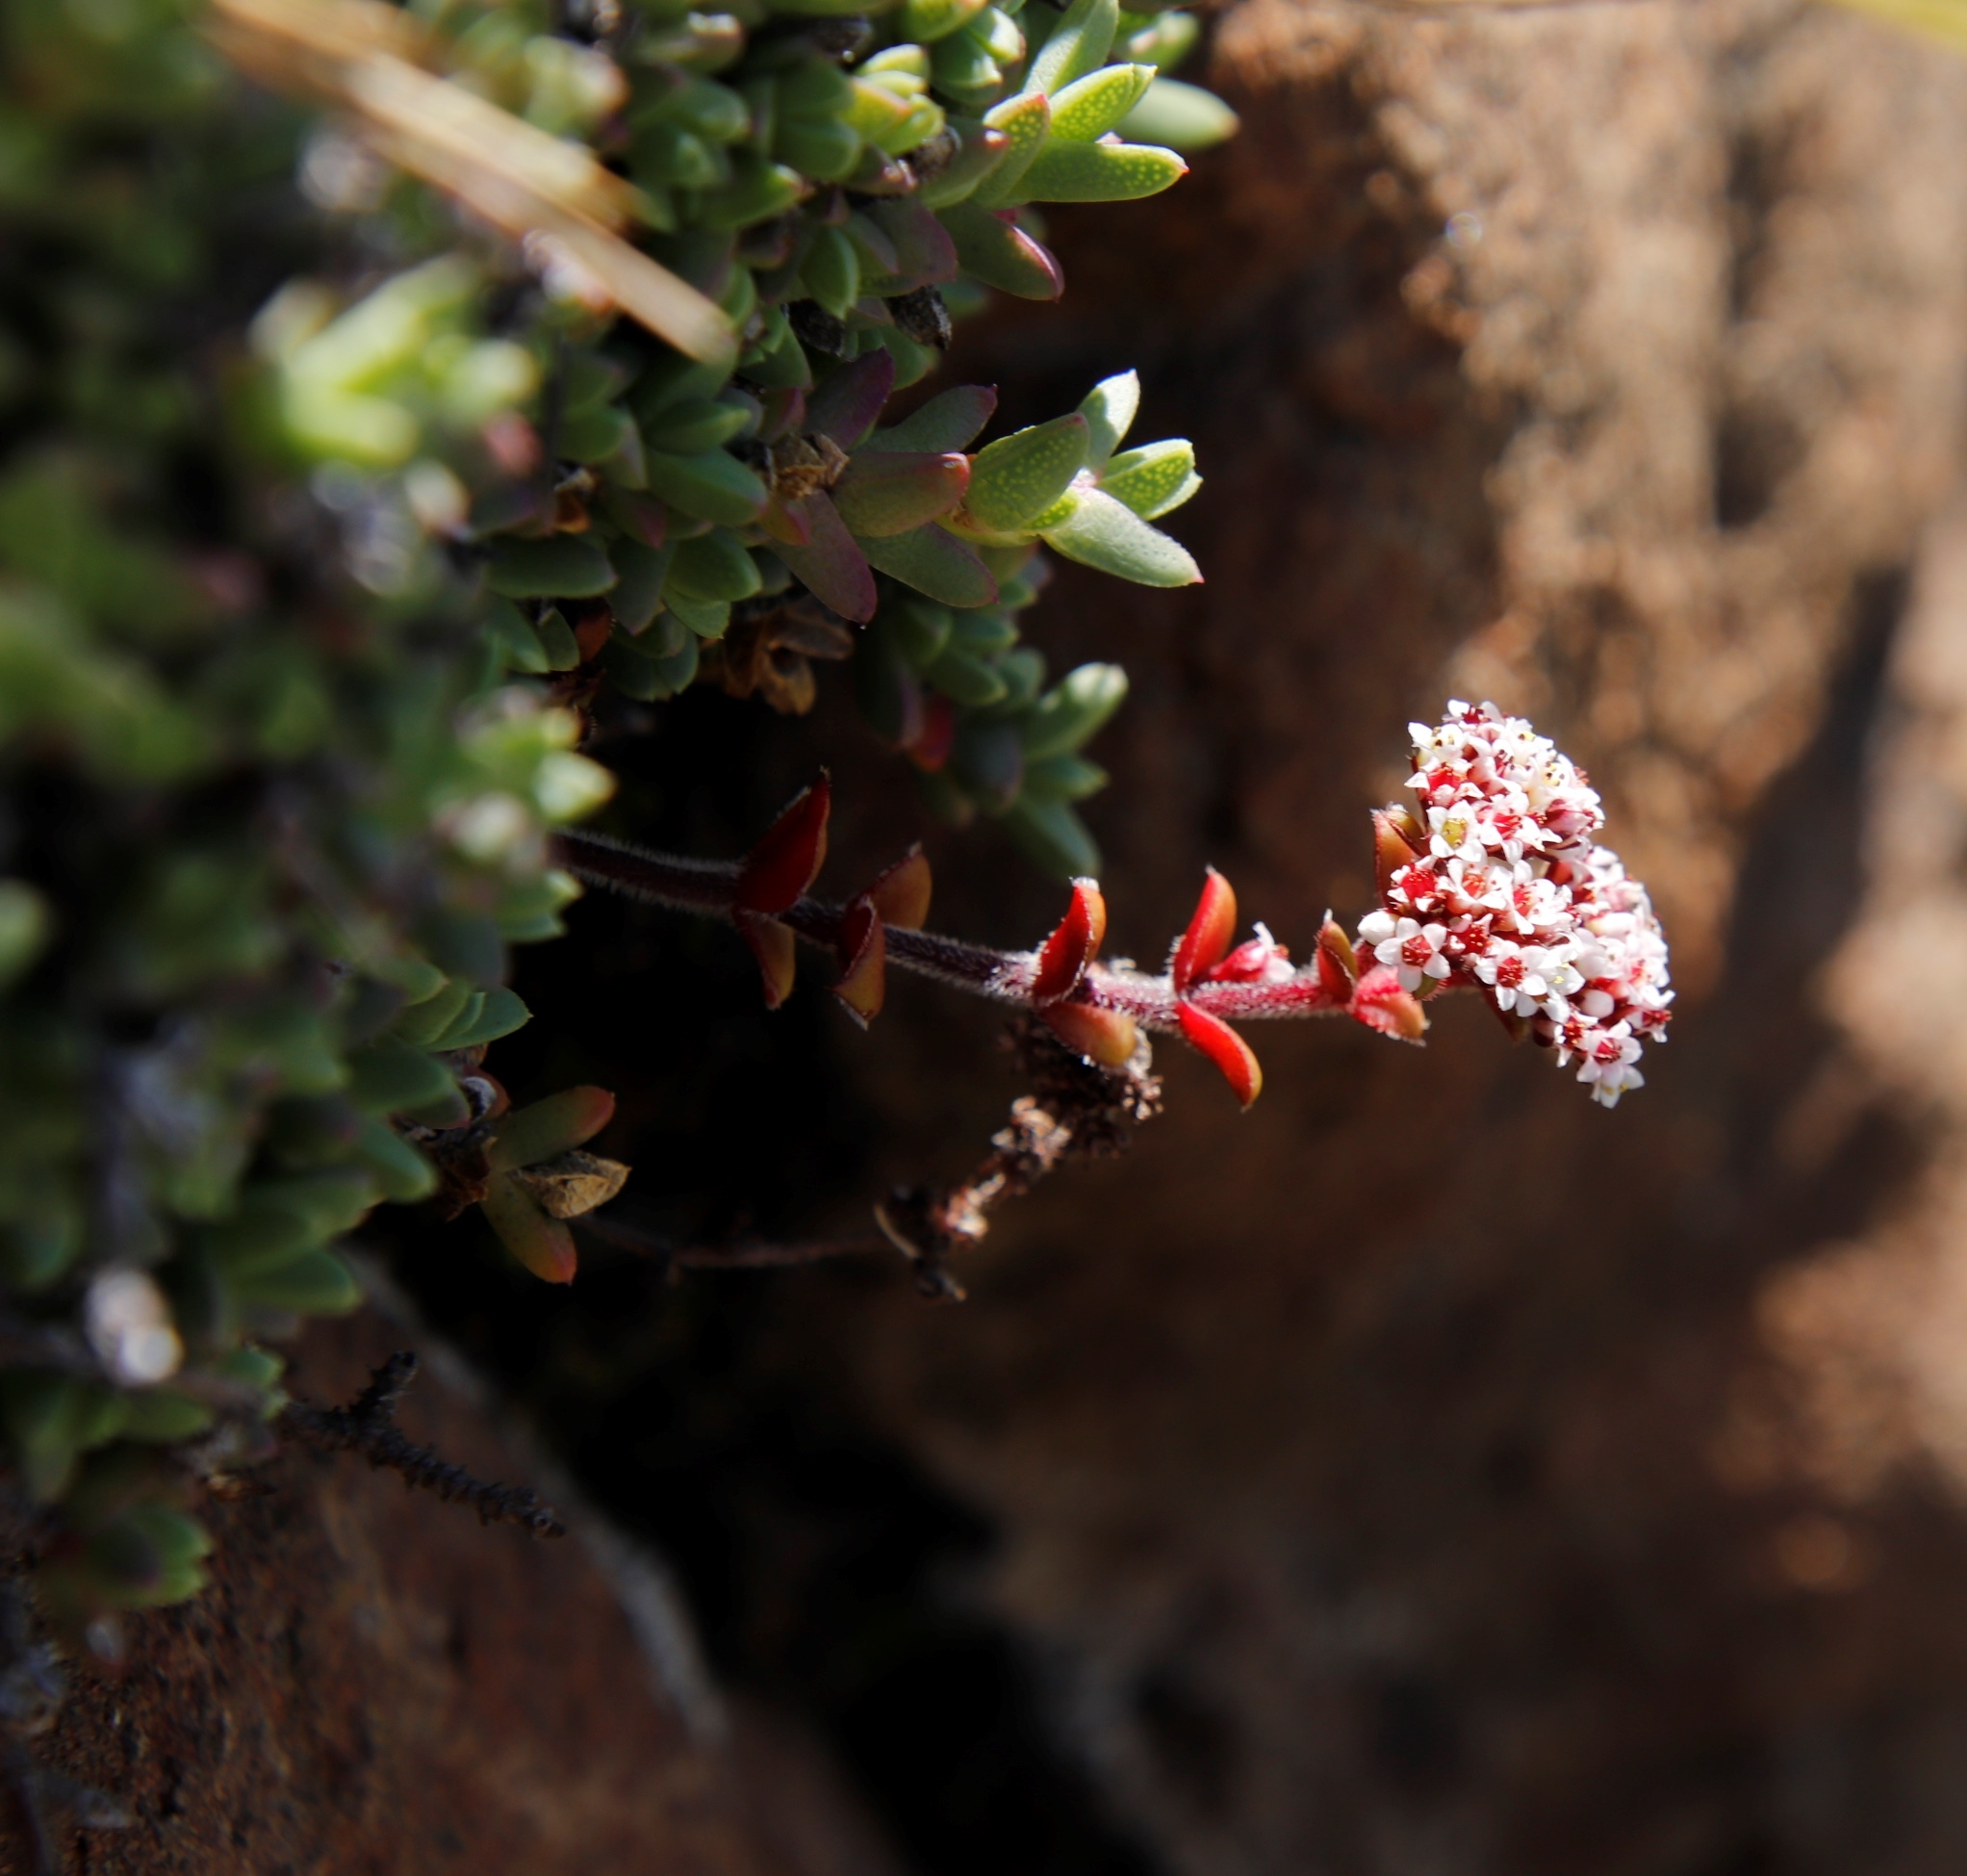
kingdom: Plantae
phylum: Tracheophyta
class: Magnoliopsida
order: Saxifragales
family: Crassulaceae
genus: Crassula
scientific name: Crassula setulosa
